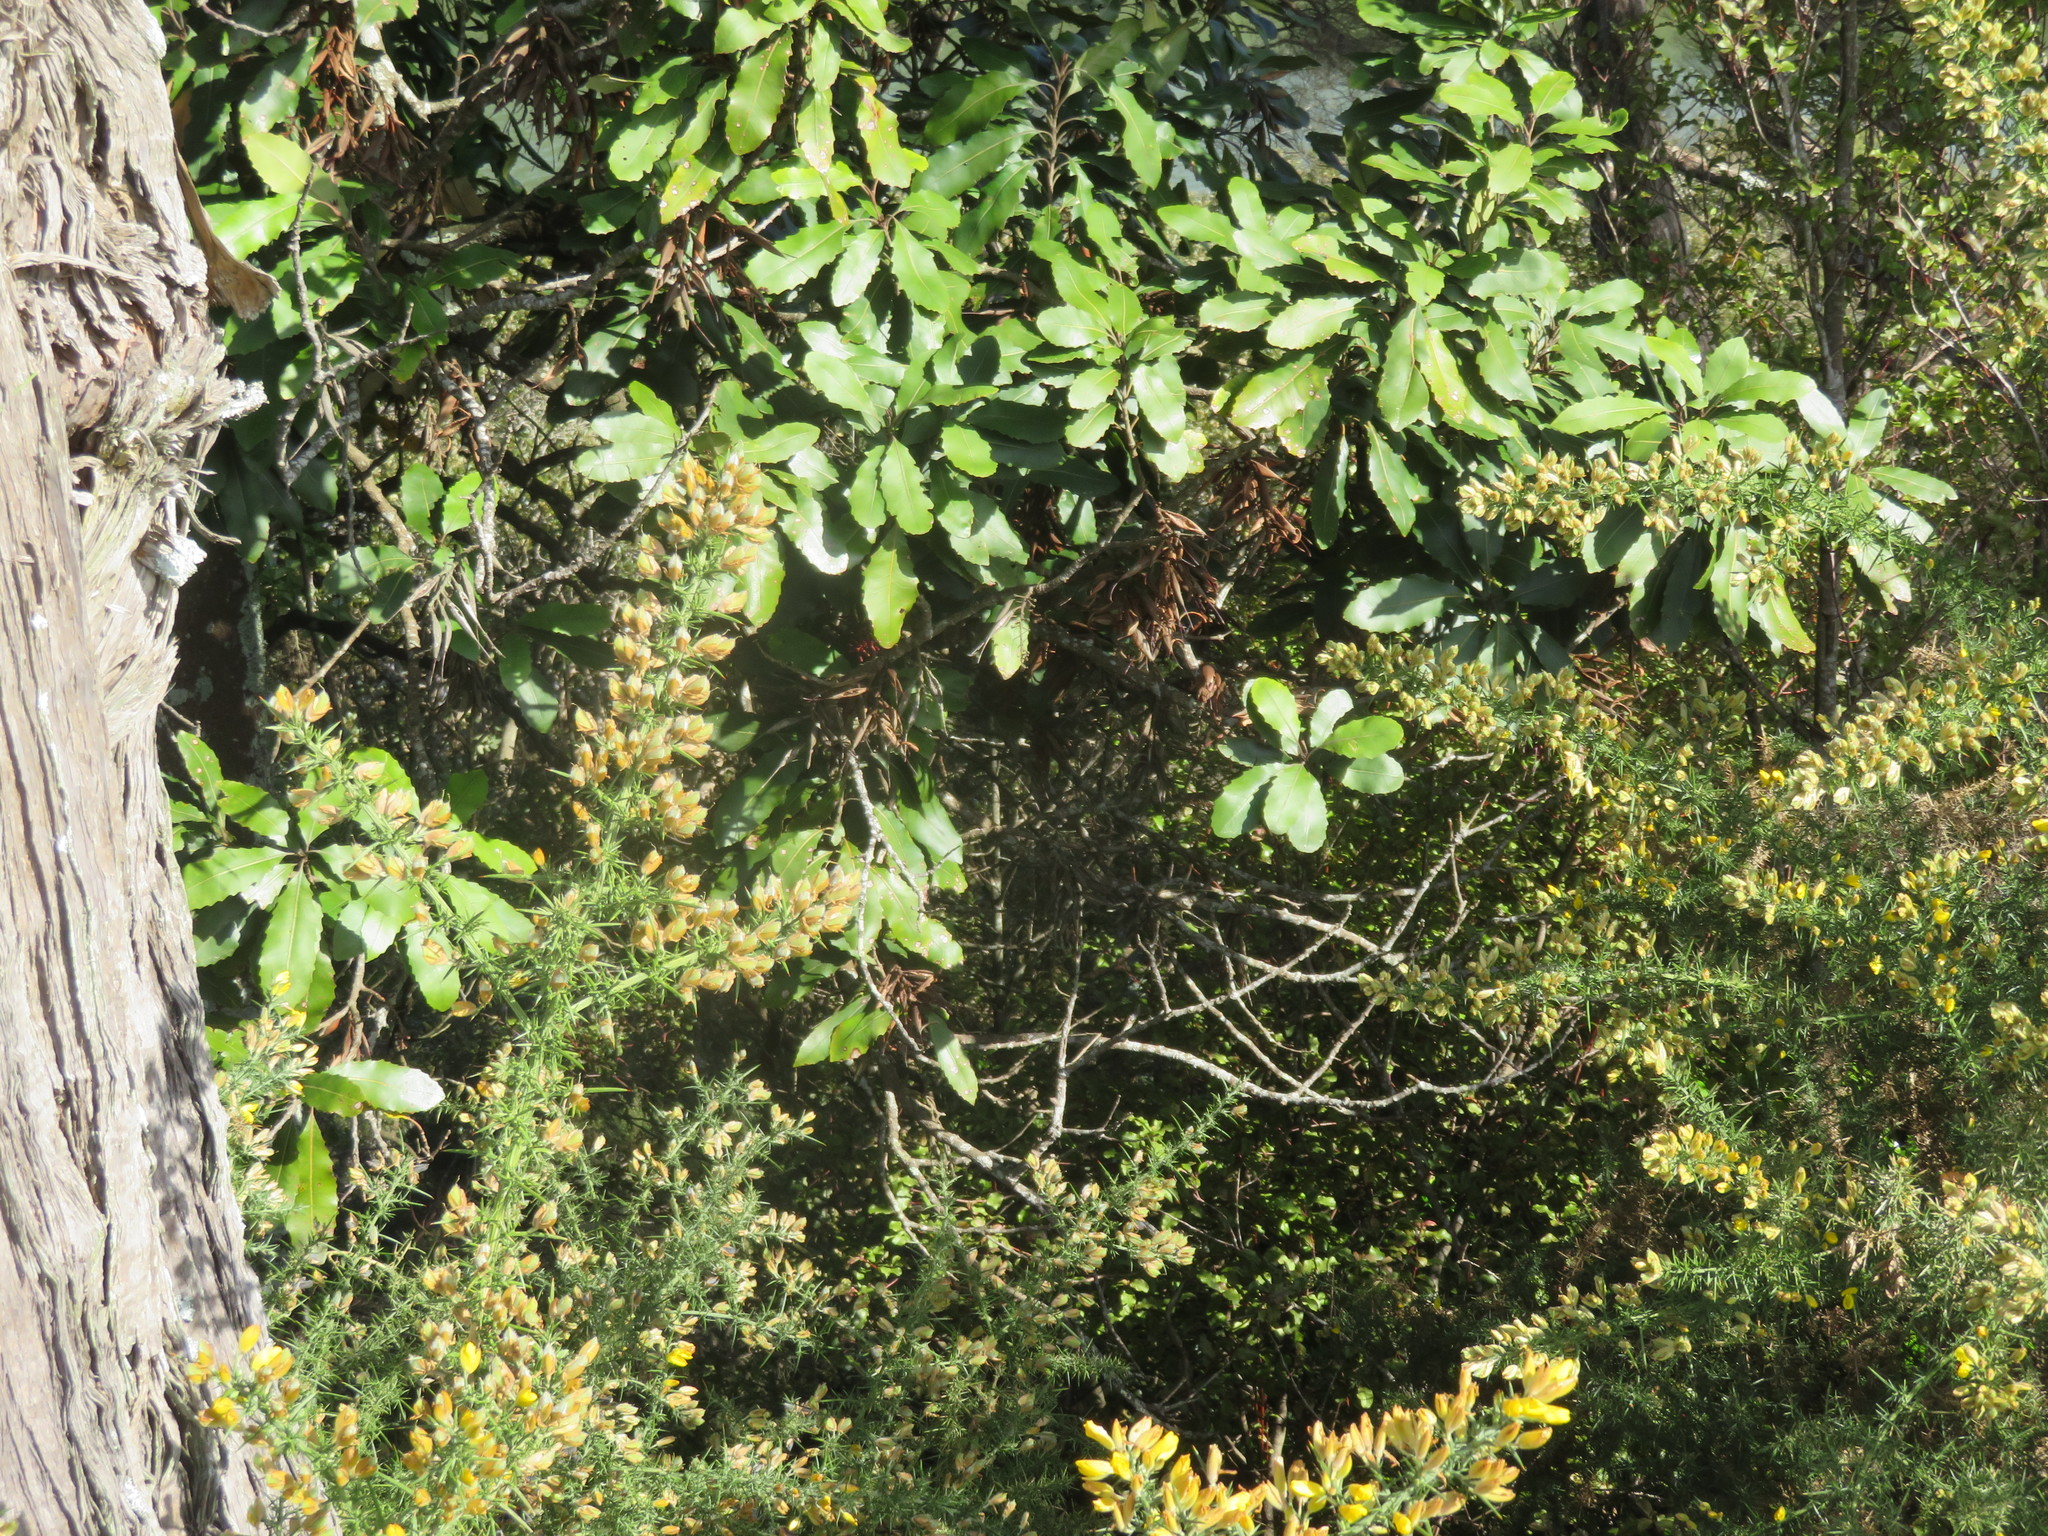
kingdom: Plantae
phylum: Tracheophyta
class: Magnoliopsida
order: Proteales
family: Proteaceae
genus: Knightia
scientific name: Knightia excelsa
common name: New zealand-honeysuckle
